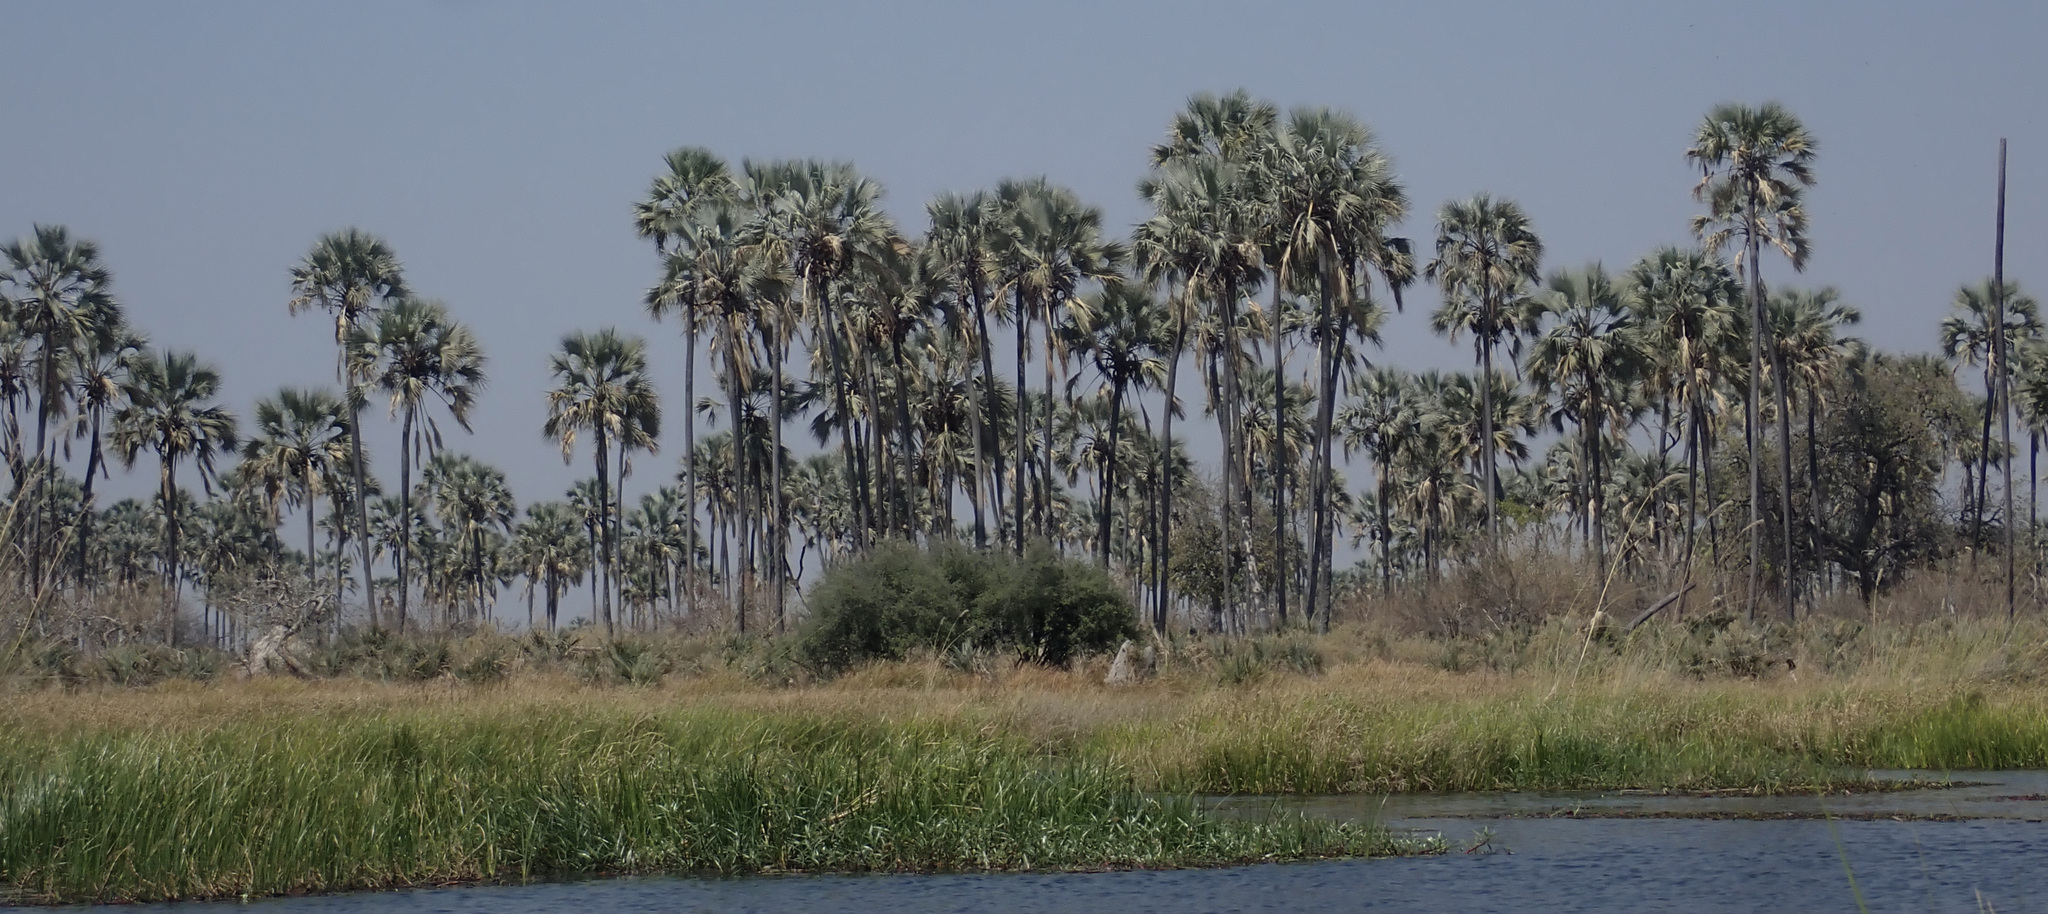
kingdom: Plantae
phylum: Tracheophyta
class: Liliopsida
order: Arecales
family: Arecaceae
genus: Hyphaene
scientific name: Hyphaene petersiana
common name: African ivory nut palm
